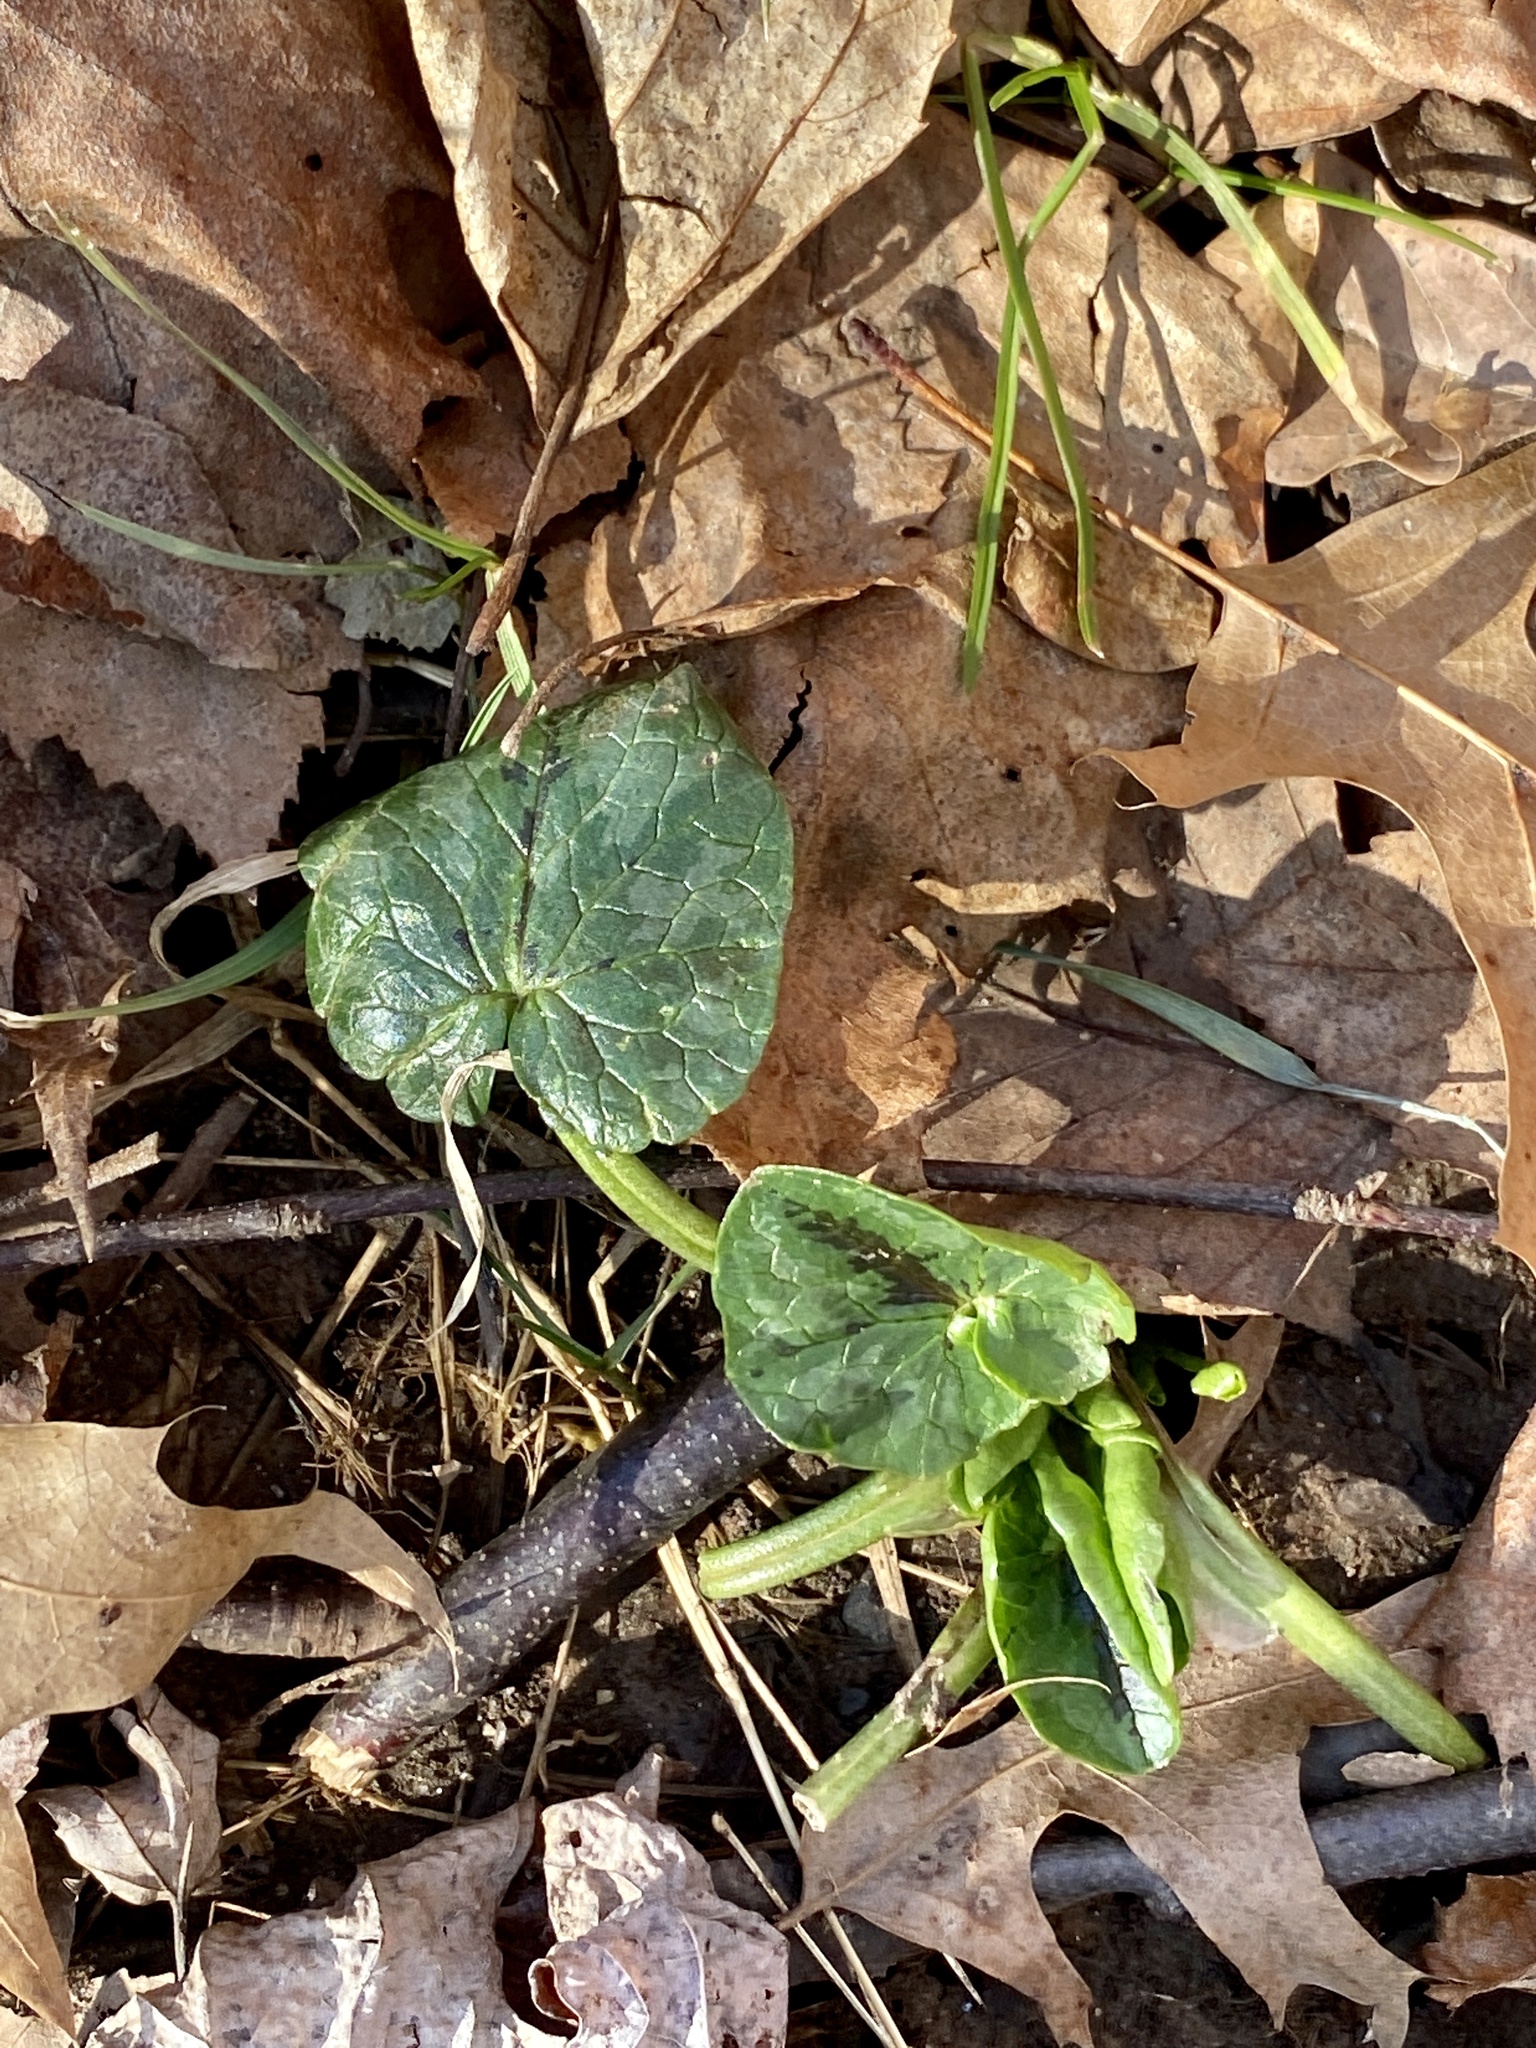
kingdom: Plantae
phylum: Tracheophyta
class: Magnoliopsida
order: Ranunculales
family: Ranunculaceae
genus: Ficaria
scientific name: Ficaria verna
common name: Lesser celandine
